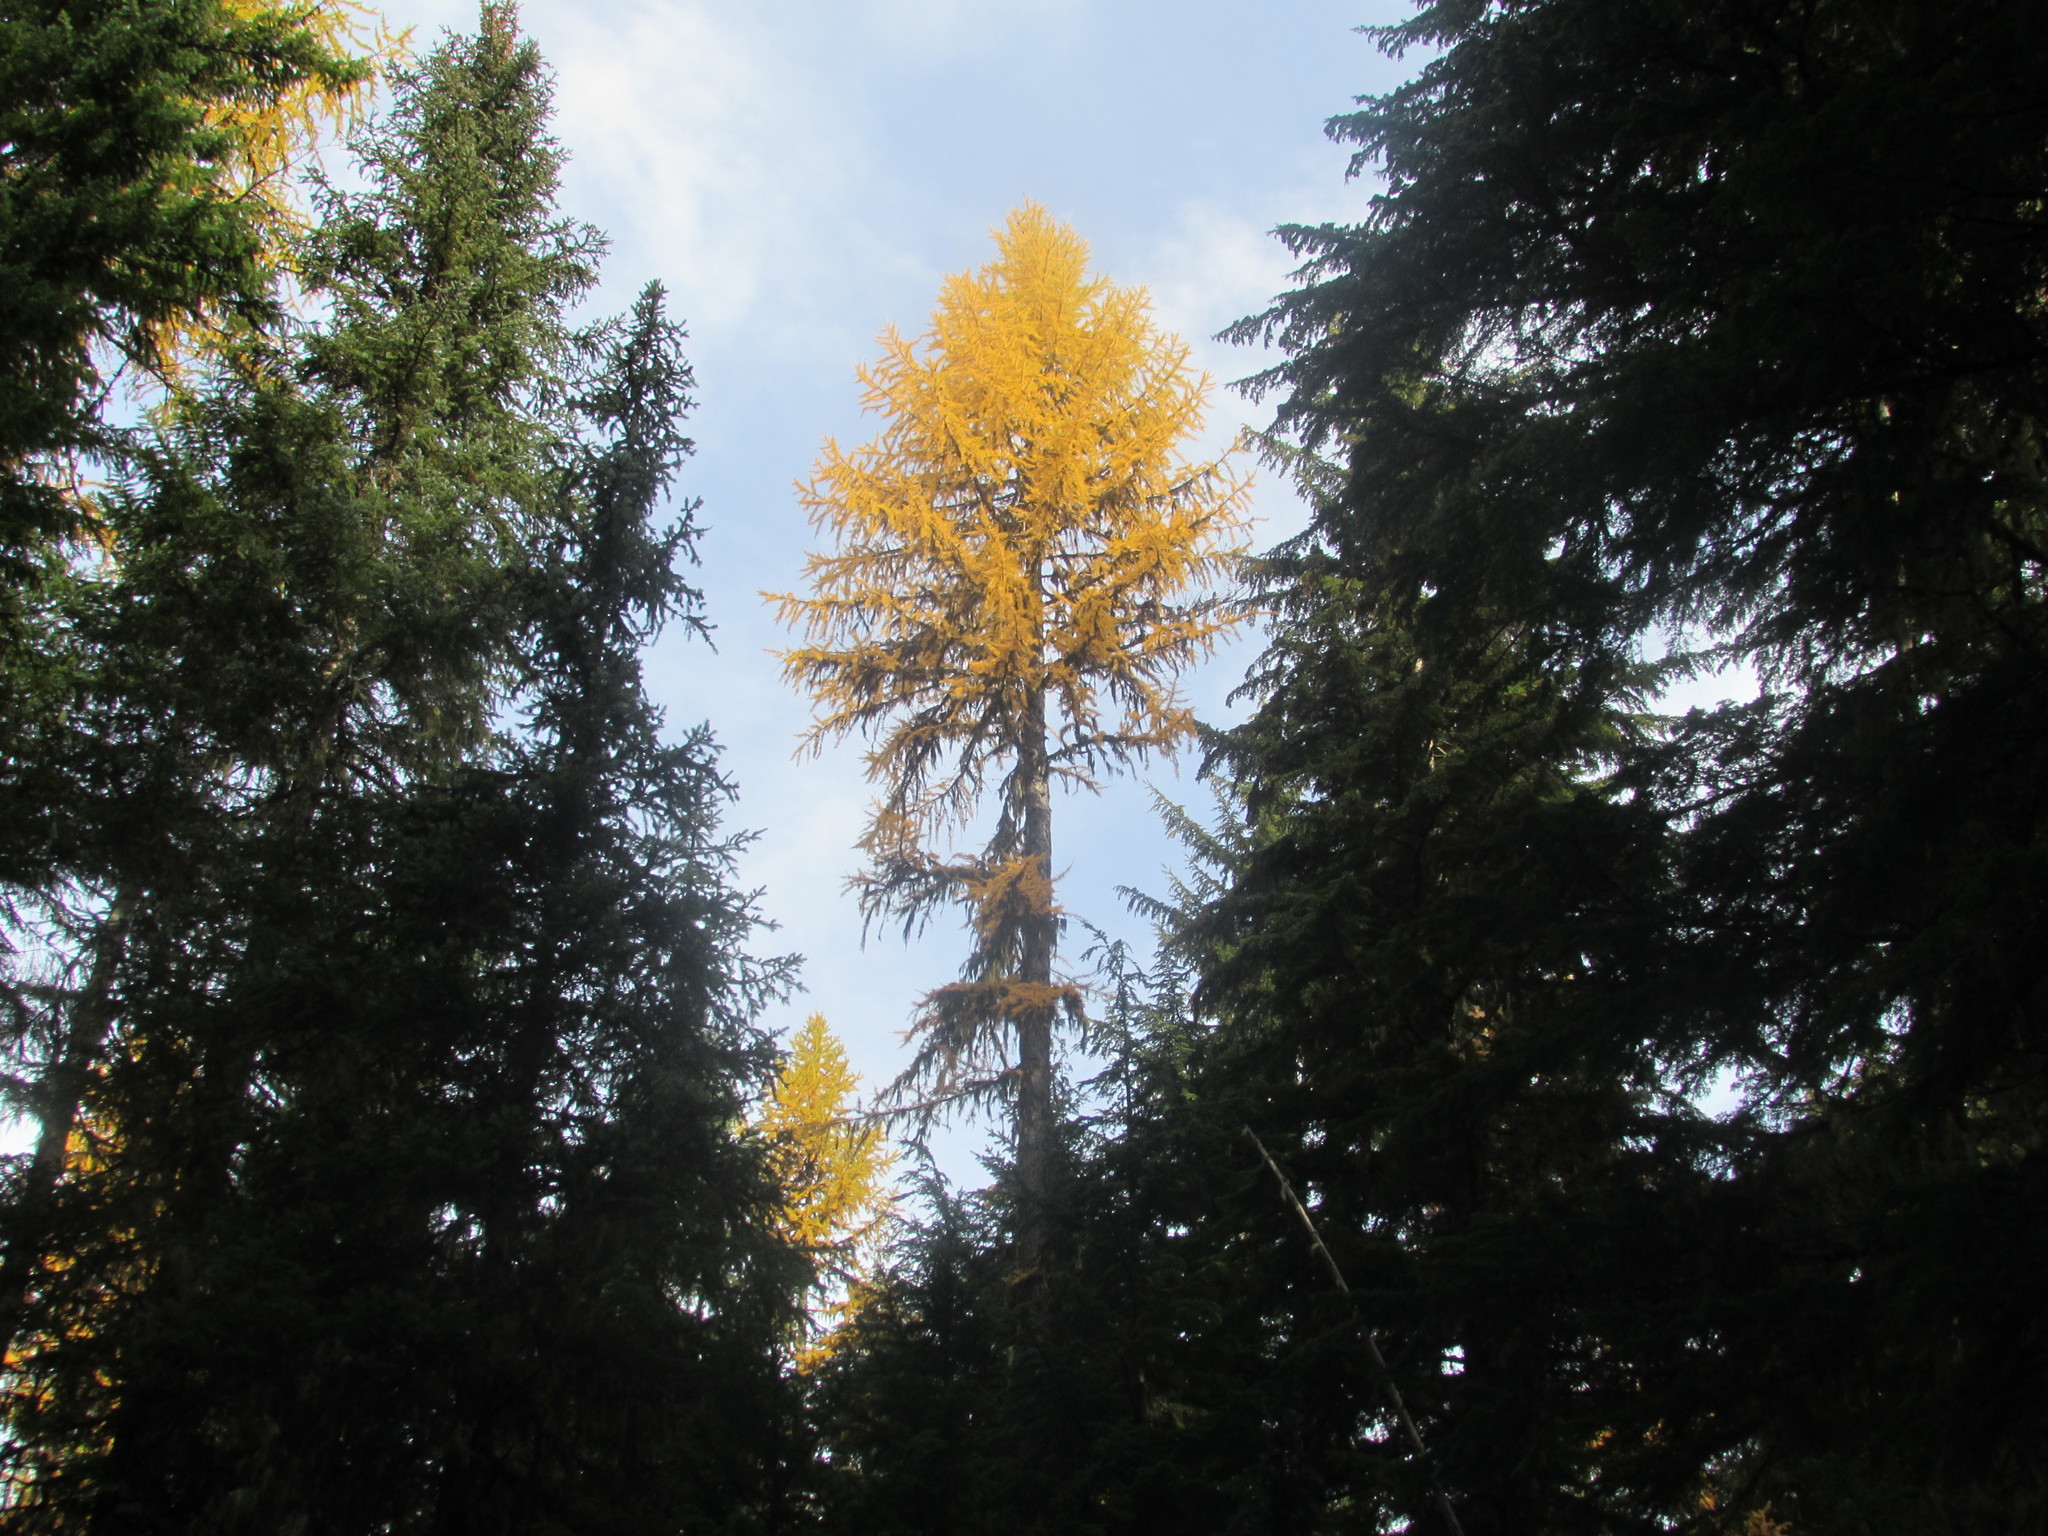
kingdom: Plantae
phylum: Tracheophyta
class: Pinopsida
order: Pinales
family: Pinaceae
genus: Larix
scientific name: Larix occidentalis
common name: Western larch
